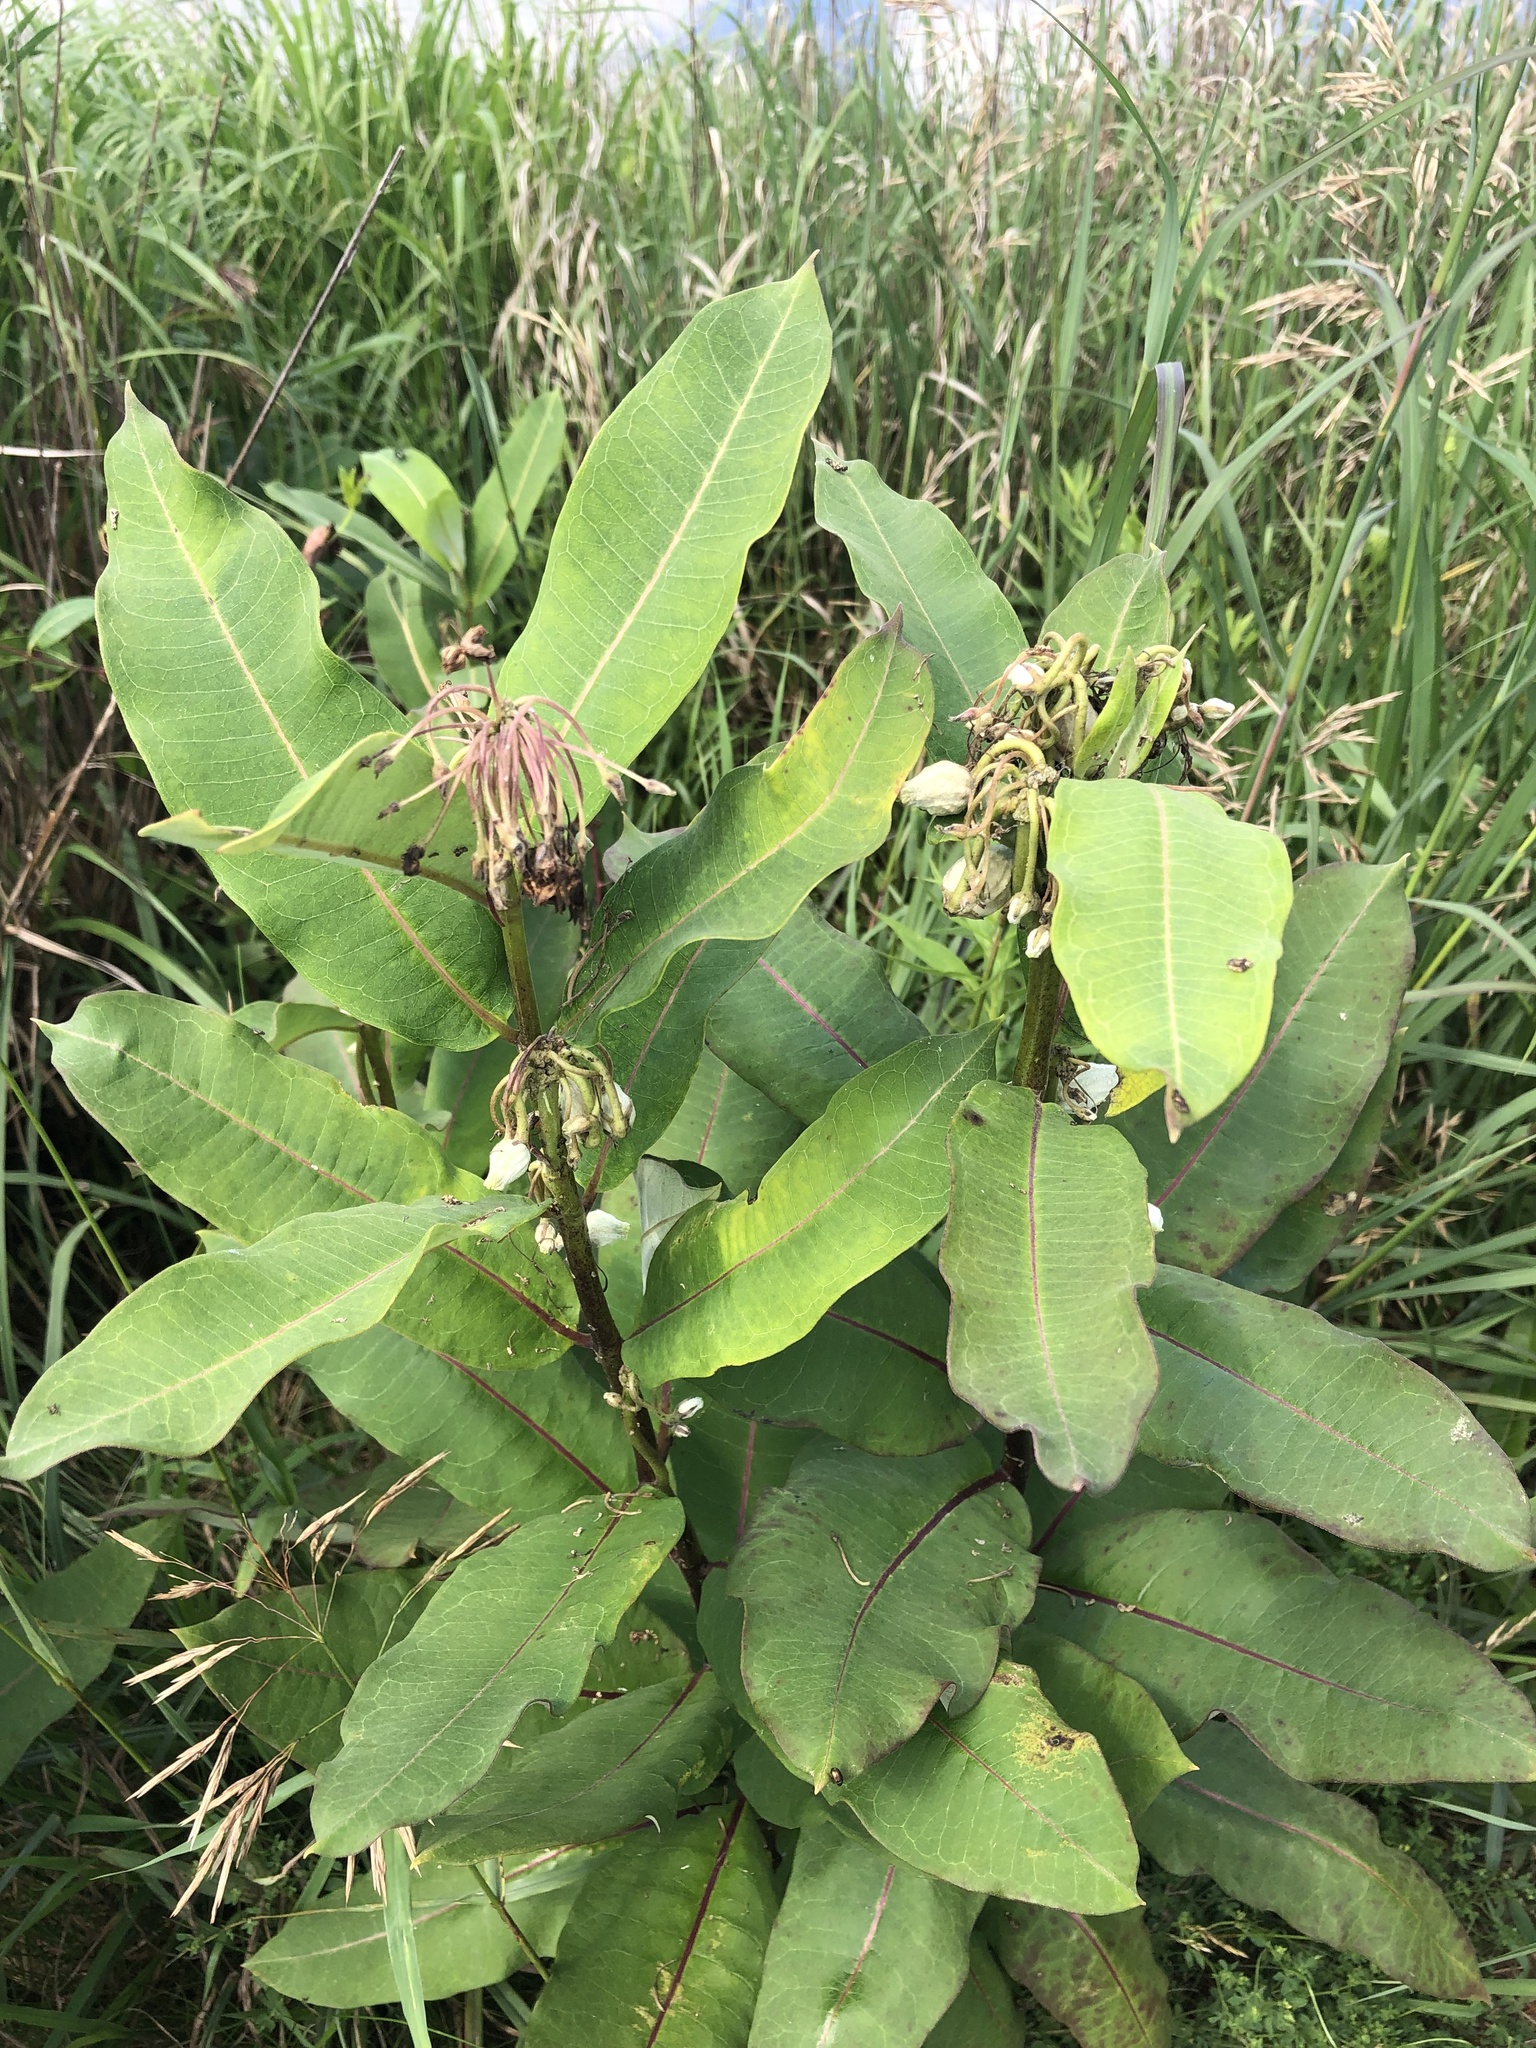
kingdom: Plantae
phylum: Tracheophyta
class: Magnoliopsida
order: Gentianales
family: Apocynaceae
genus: Asclepias
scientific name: Asclepias syriaca
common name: Common milkweed
